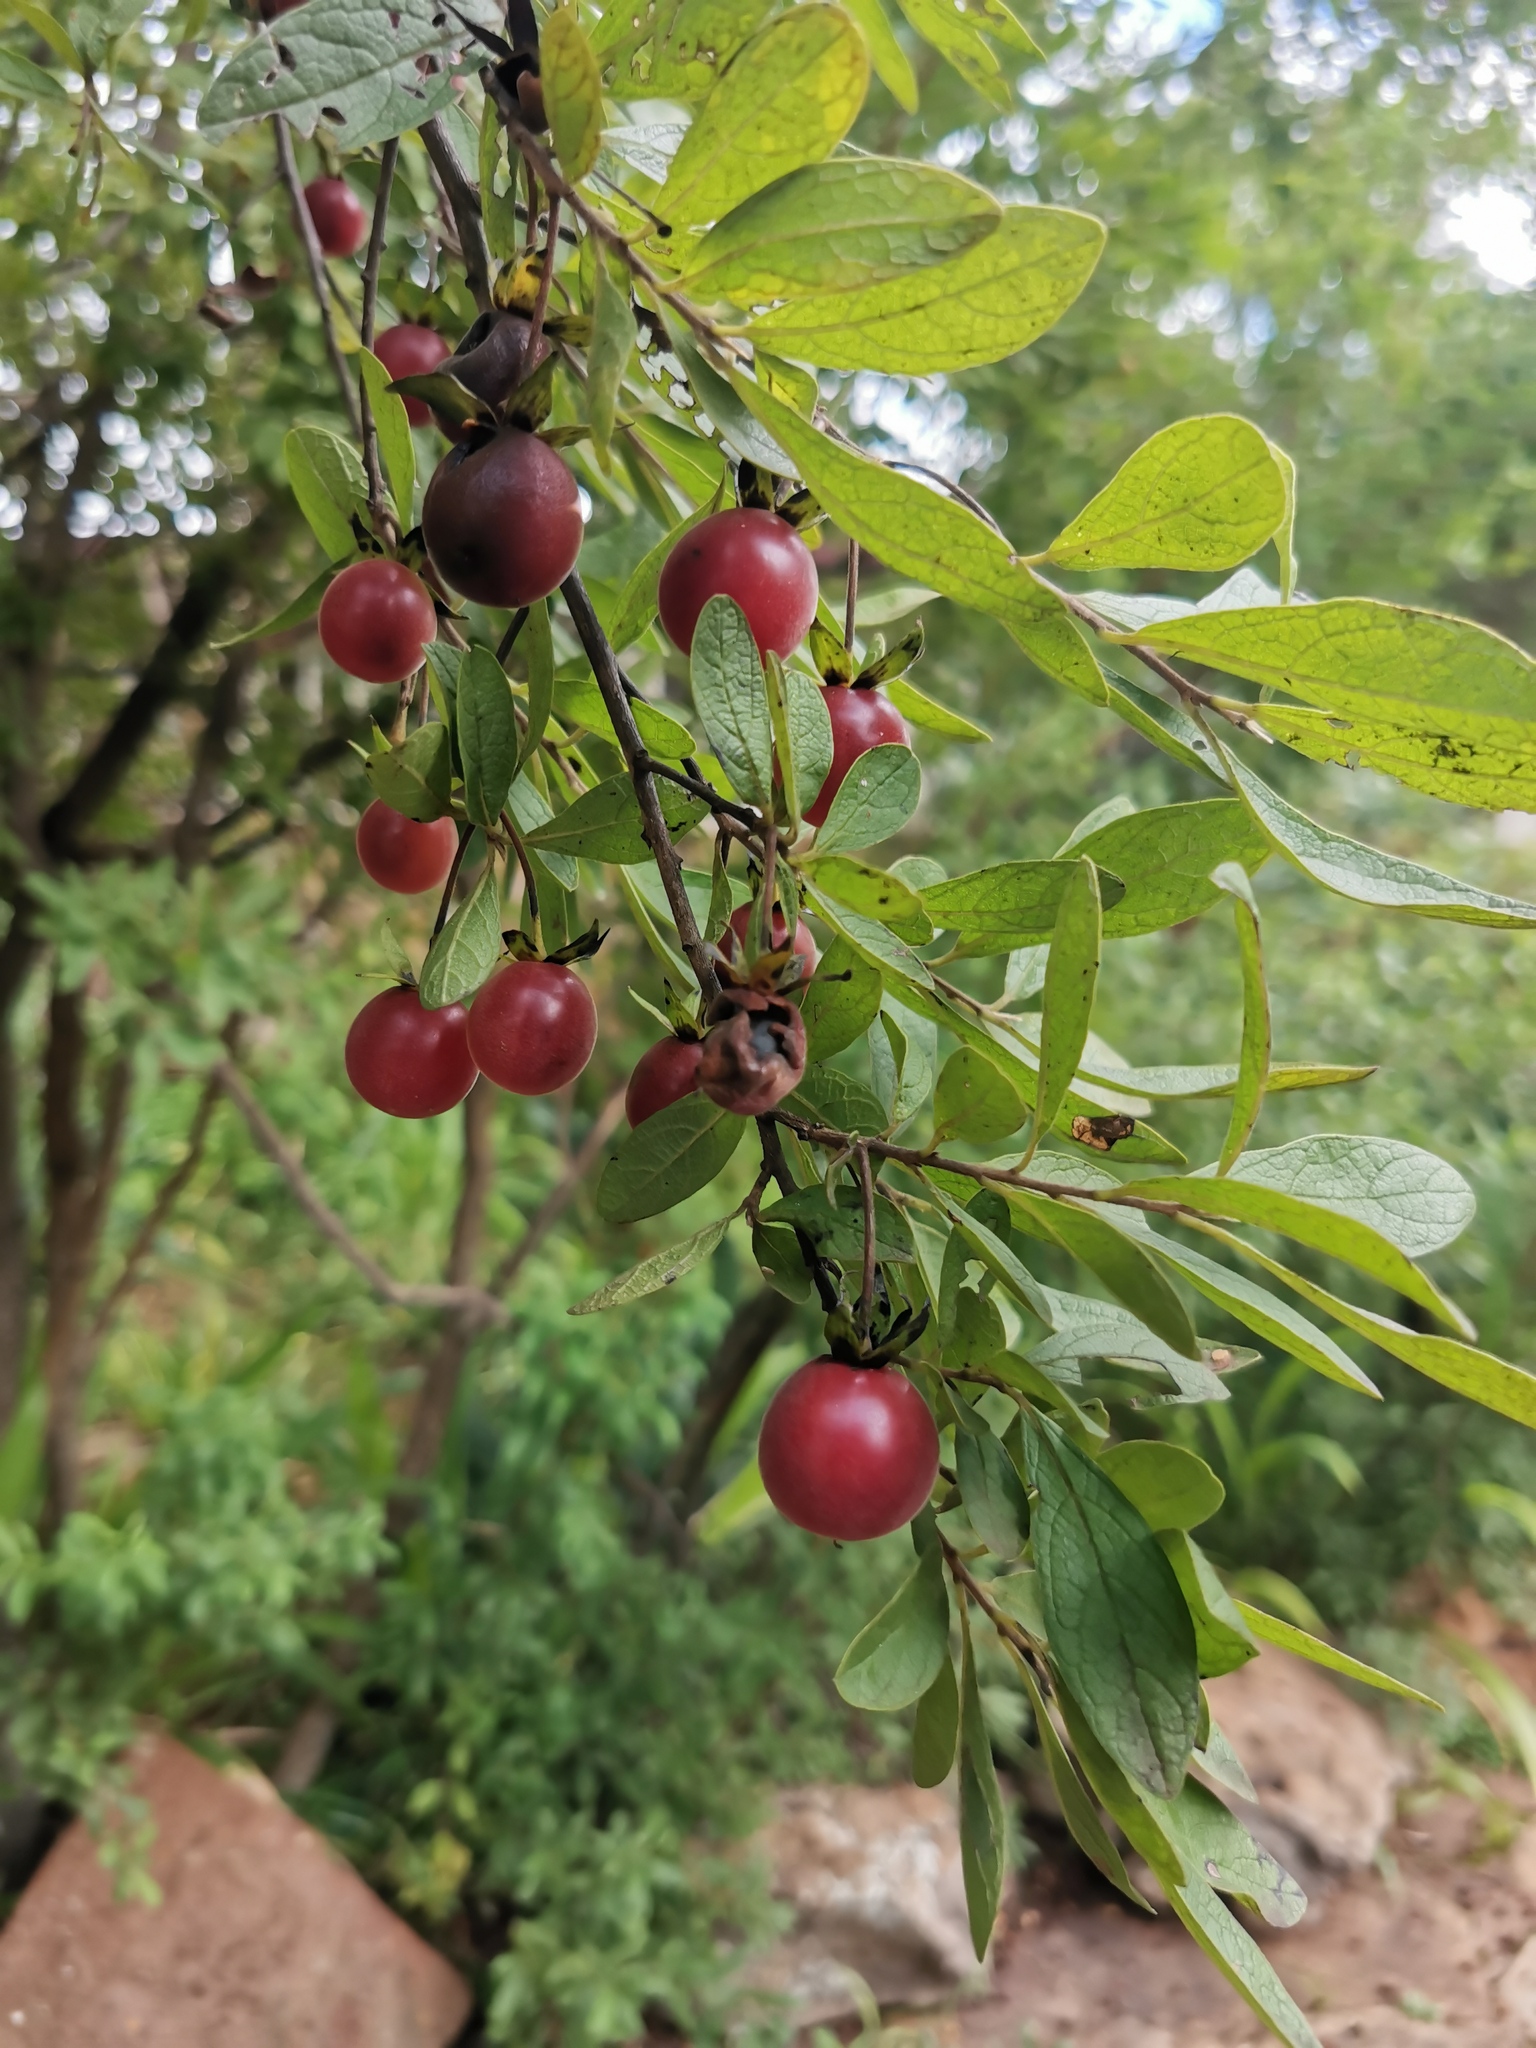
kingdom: Plantae
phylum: Tracheophyta
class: Magnoliopsida
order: Ericales
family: Ebenaceae
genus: Diospyros
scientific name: Diospyros lycioides
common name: Red star apple
